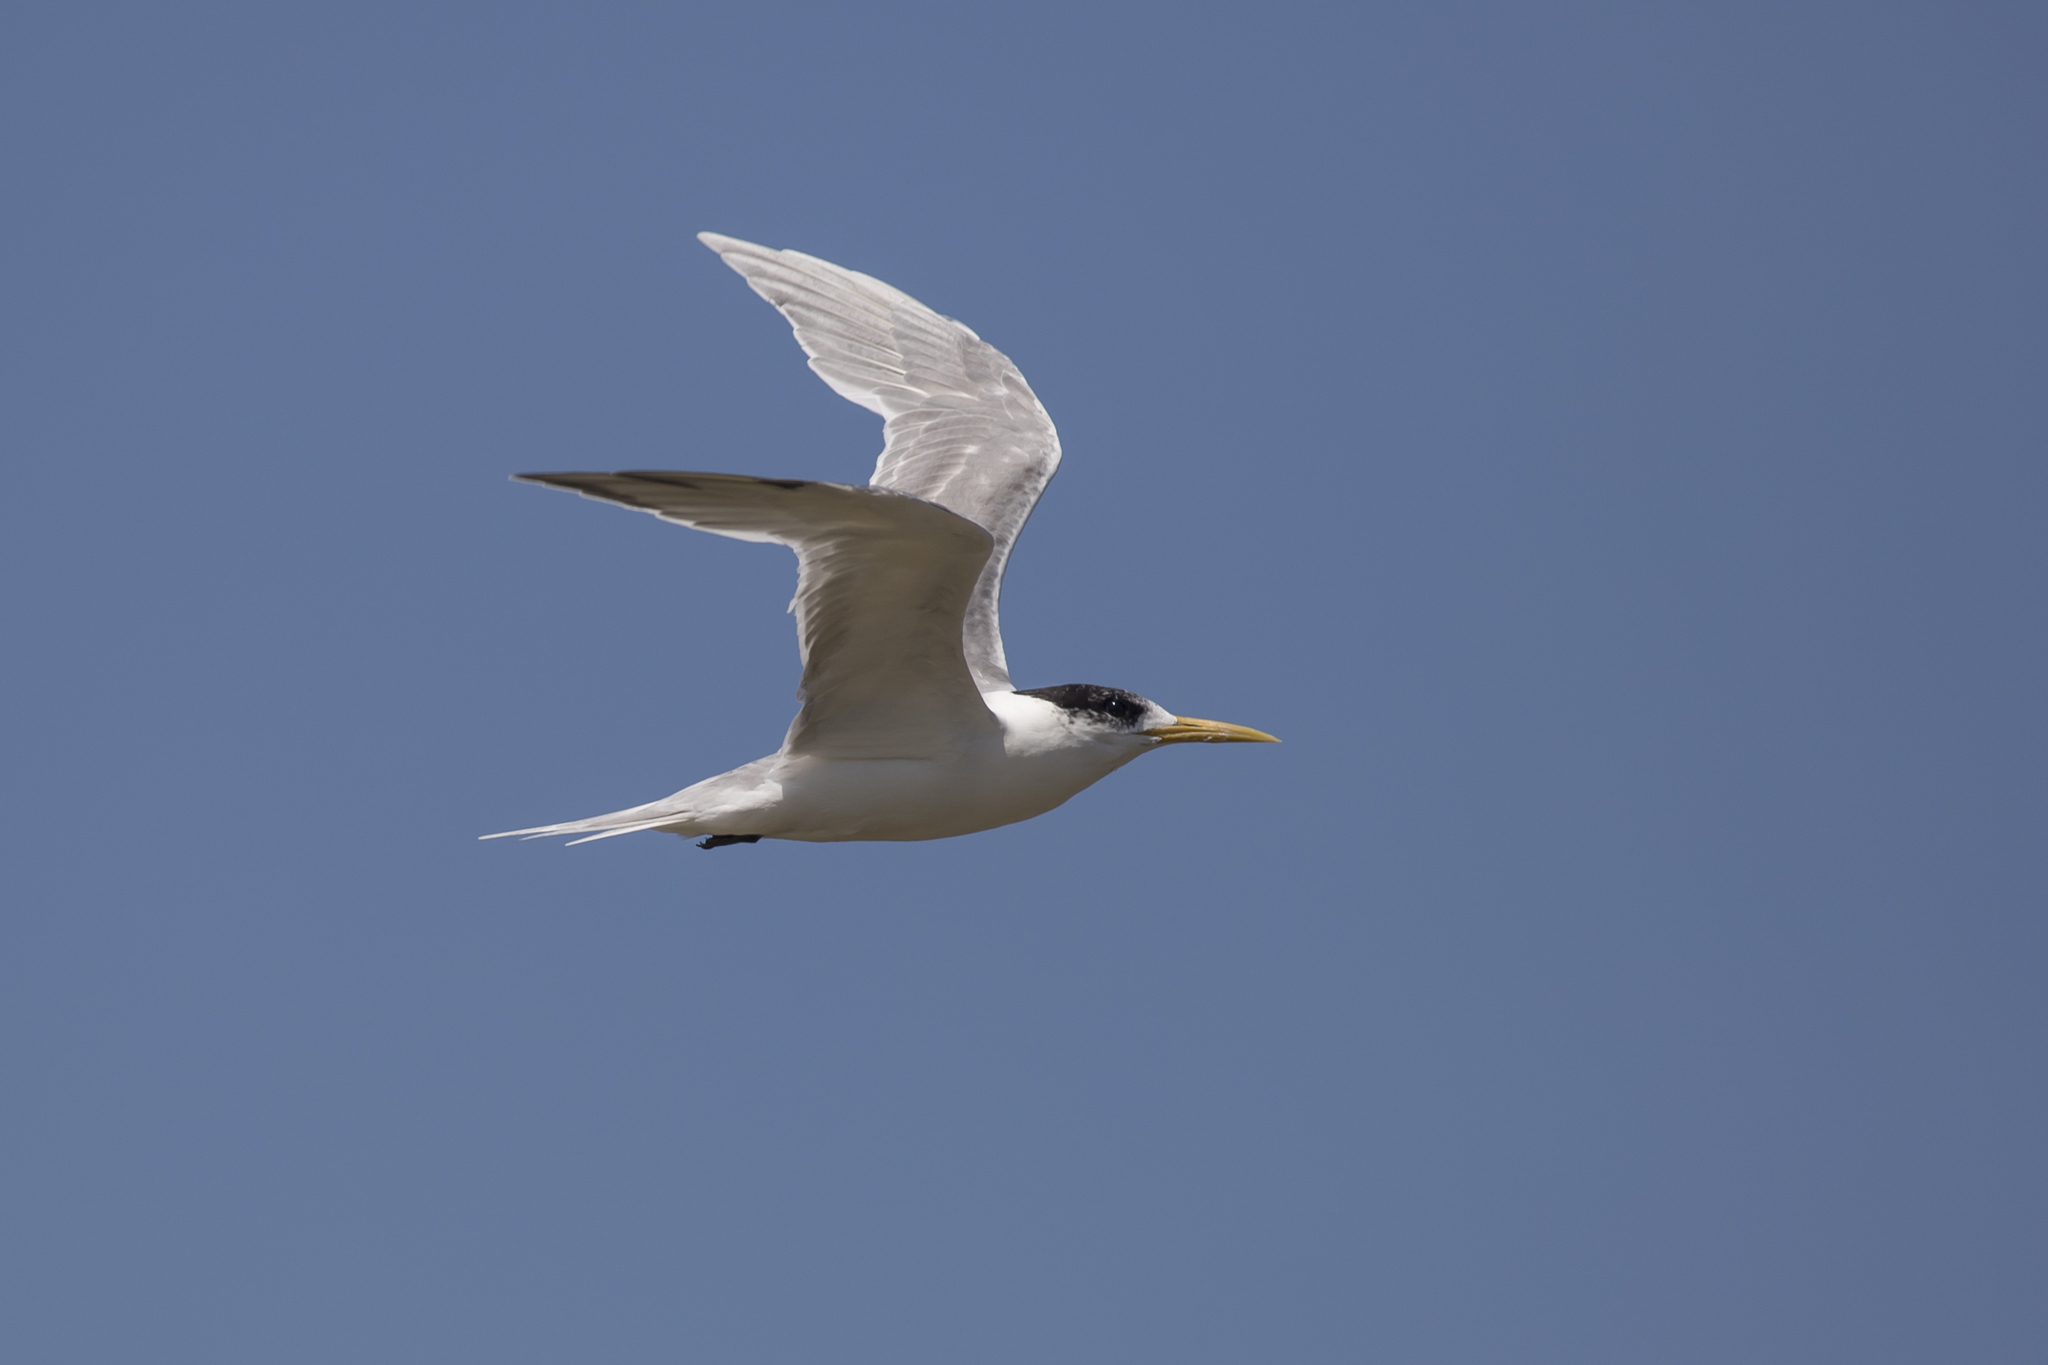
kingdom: Animalia
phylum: Chordata
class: Aves
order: Charadriiformes
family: Laridae
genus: Thalasseus
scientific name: Thalasseus bergii
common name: Greater crested tern
